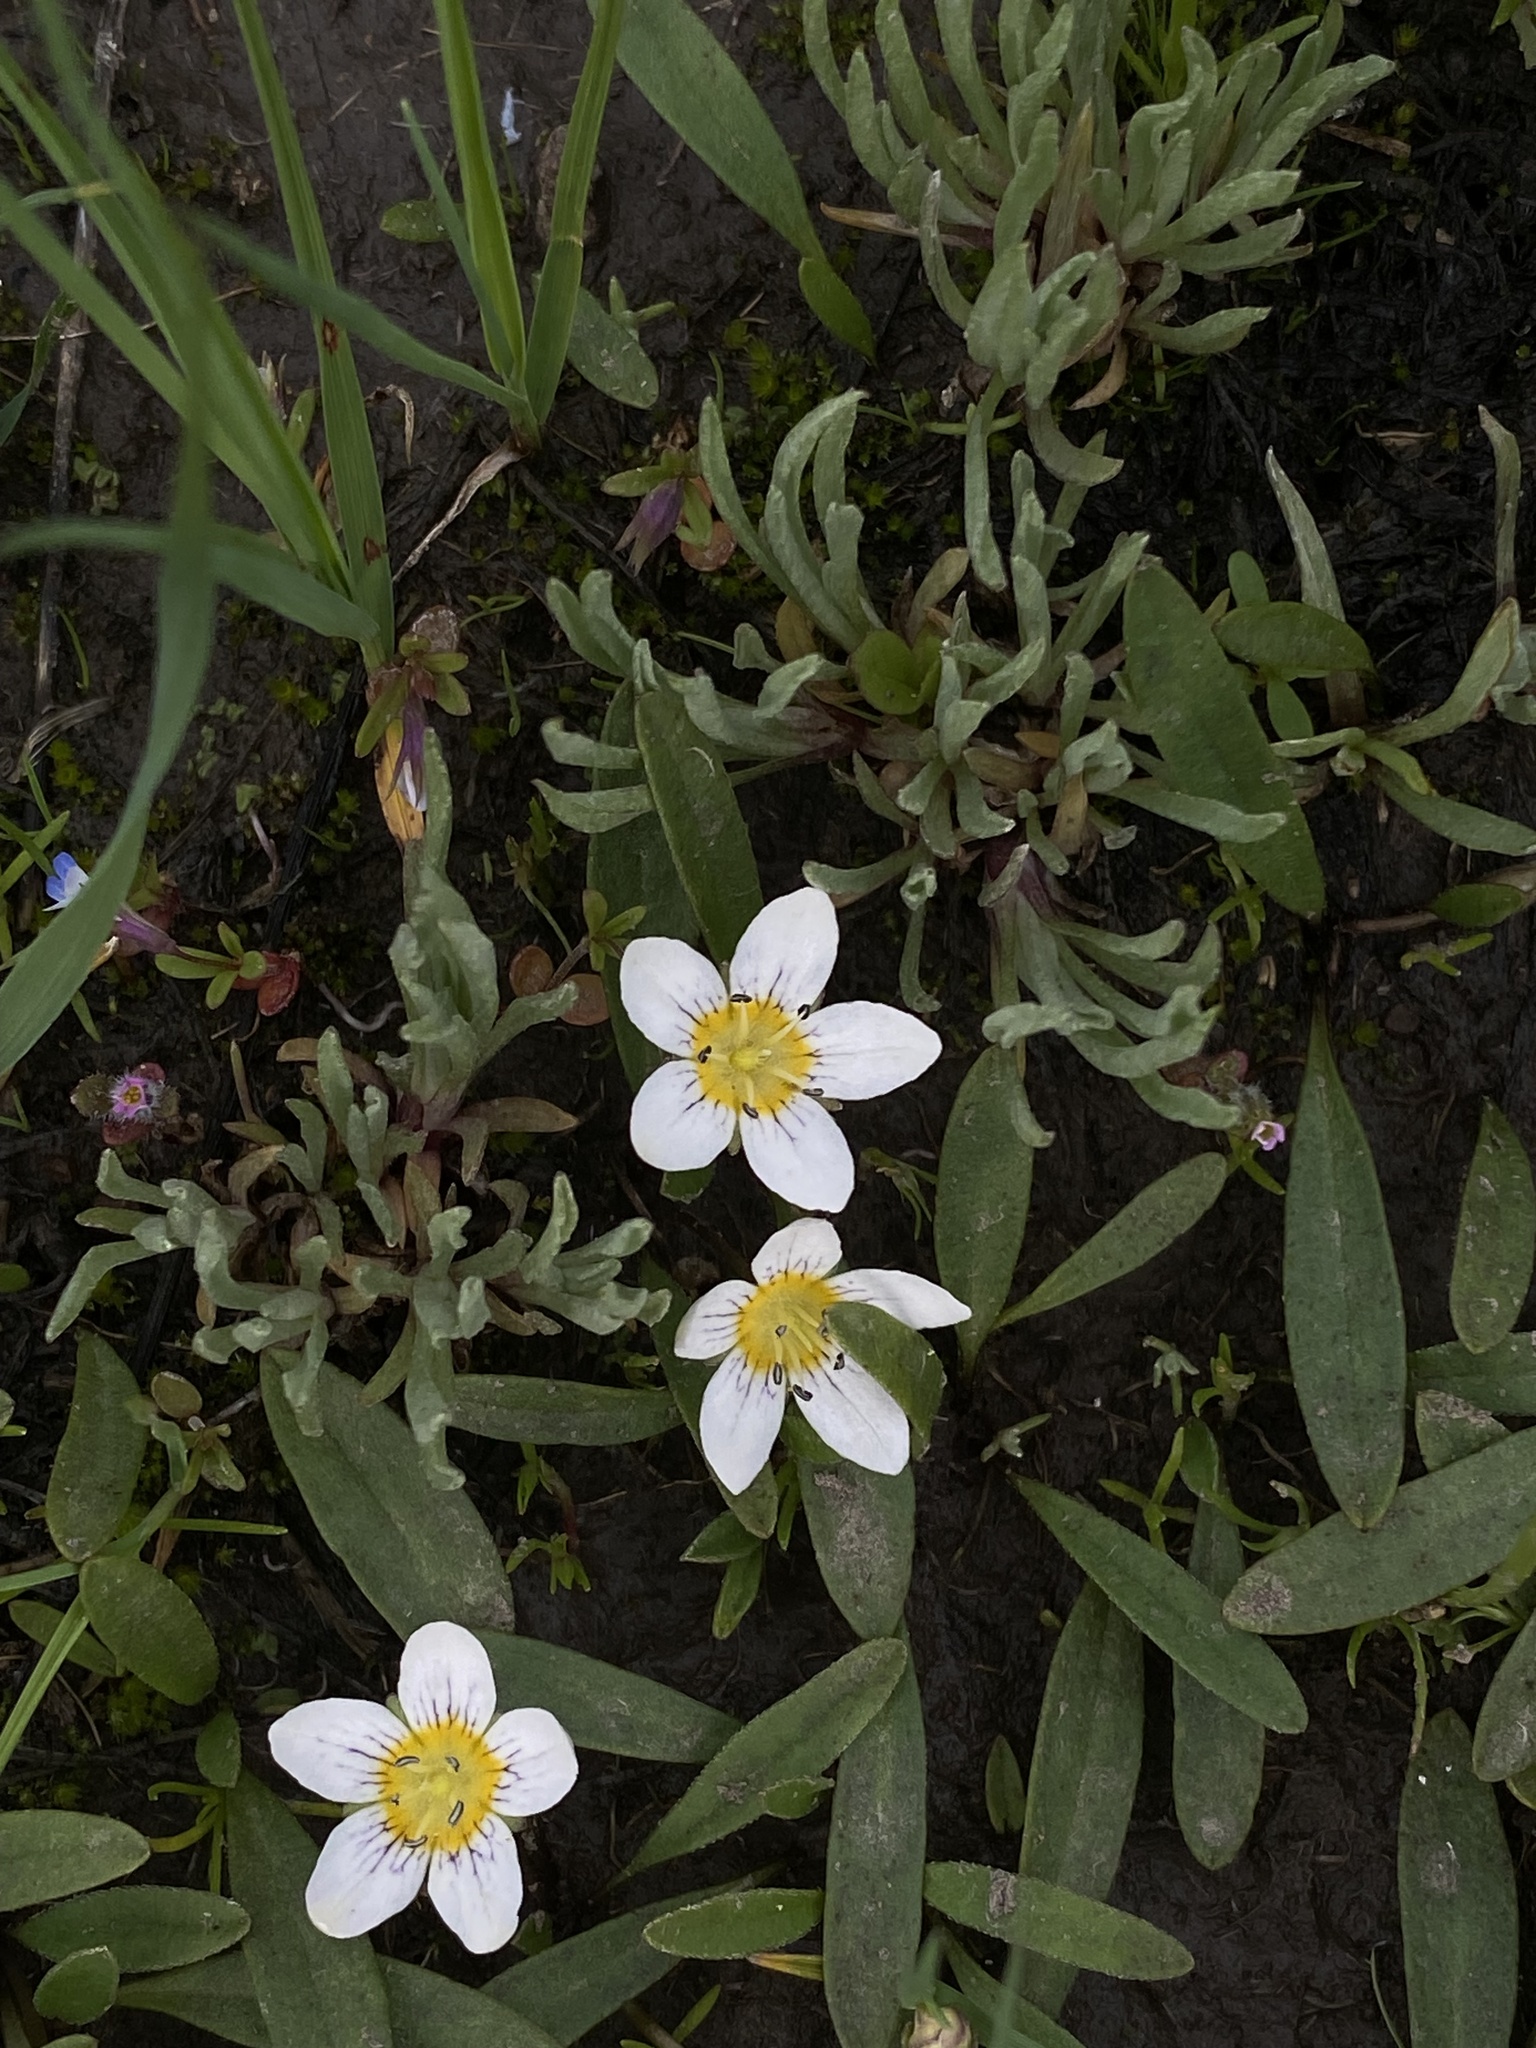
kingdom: Plantae
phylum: Tracheophyta
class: Magnoliopsida
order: Boraginales
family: Hydrophyllaceae
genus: Hesperochiron
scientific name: Hesperochiron pumilus
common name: Dwarf hesperochiron
